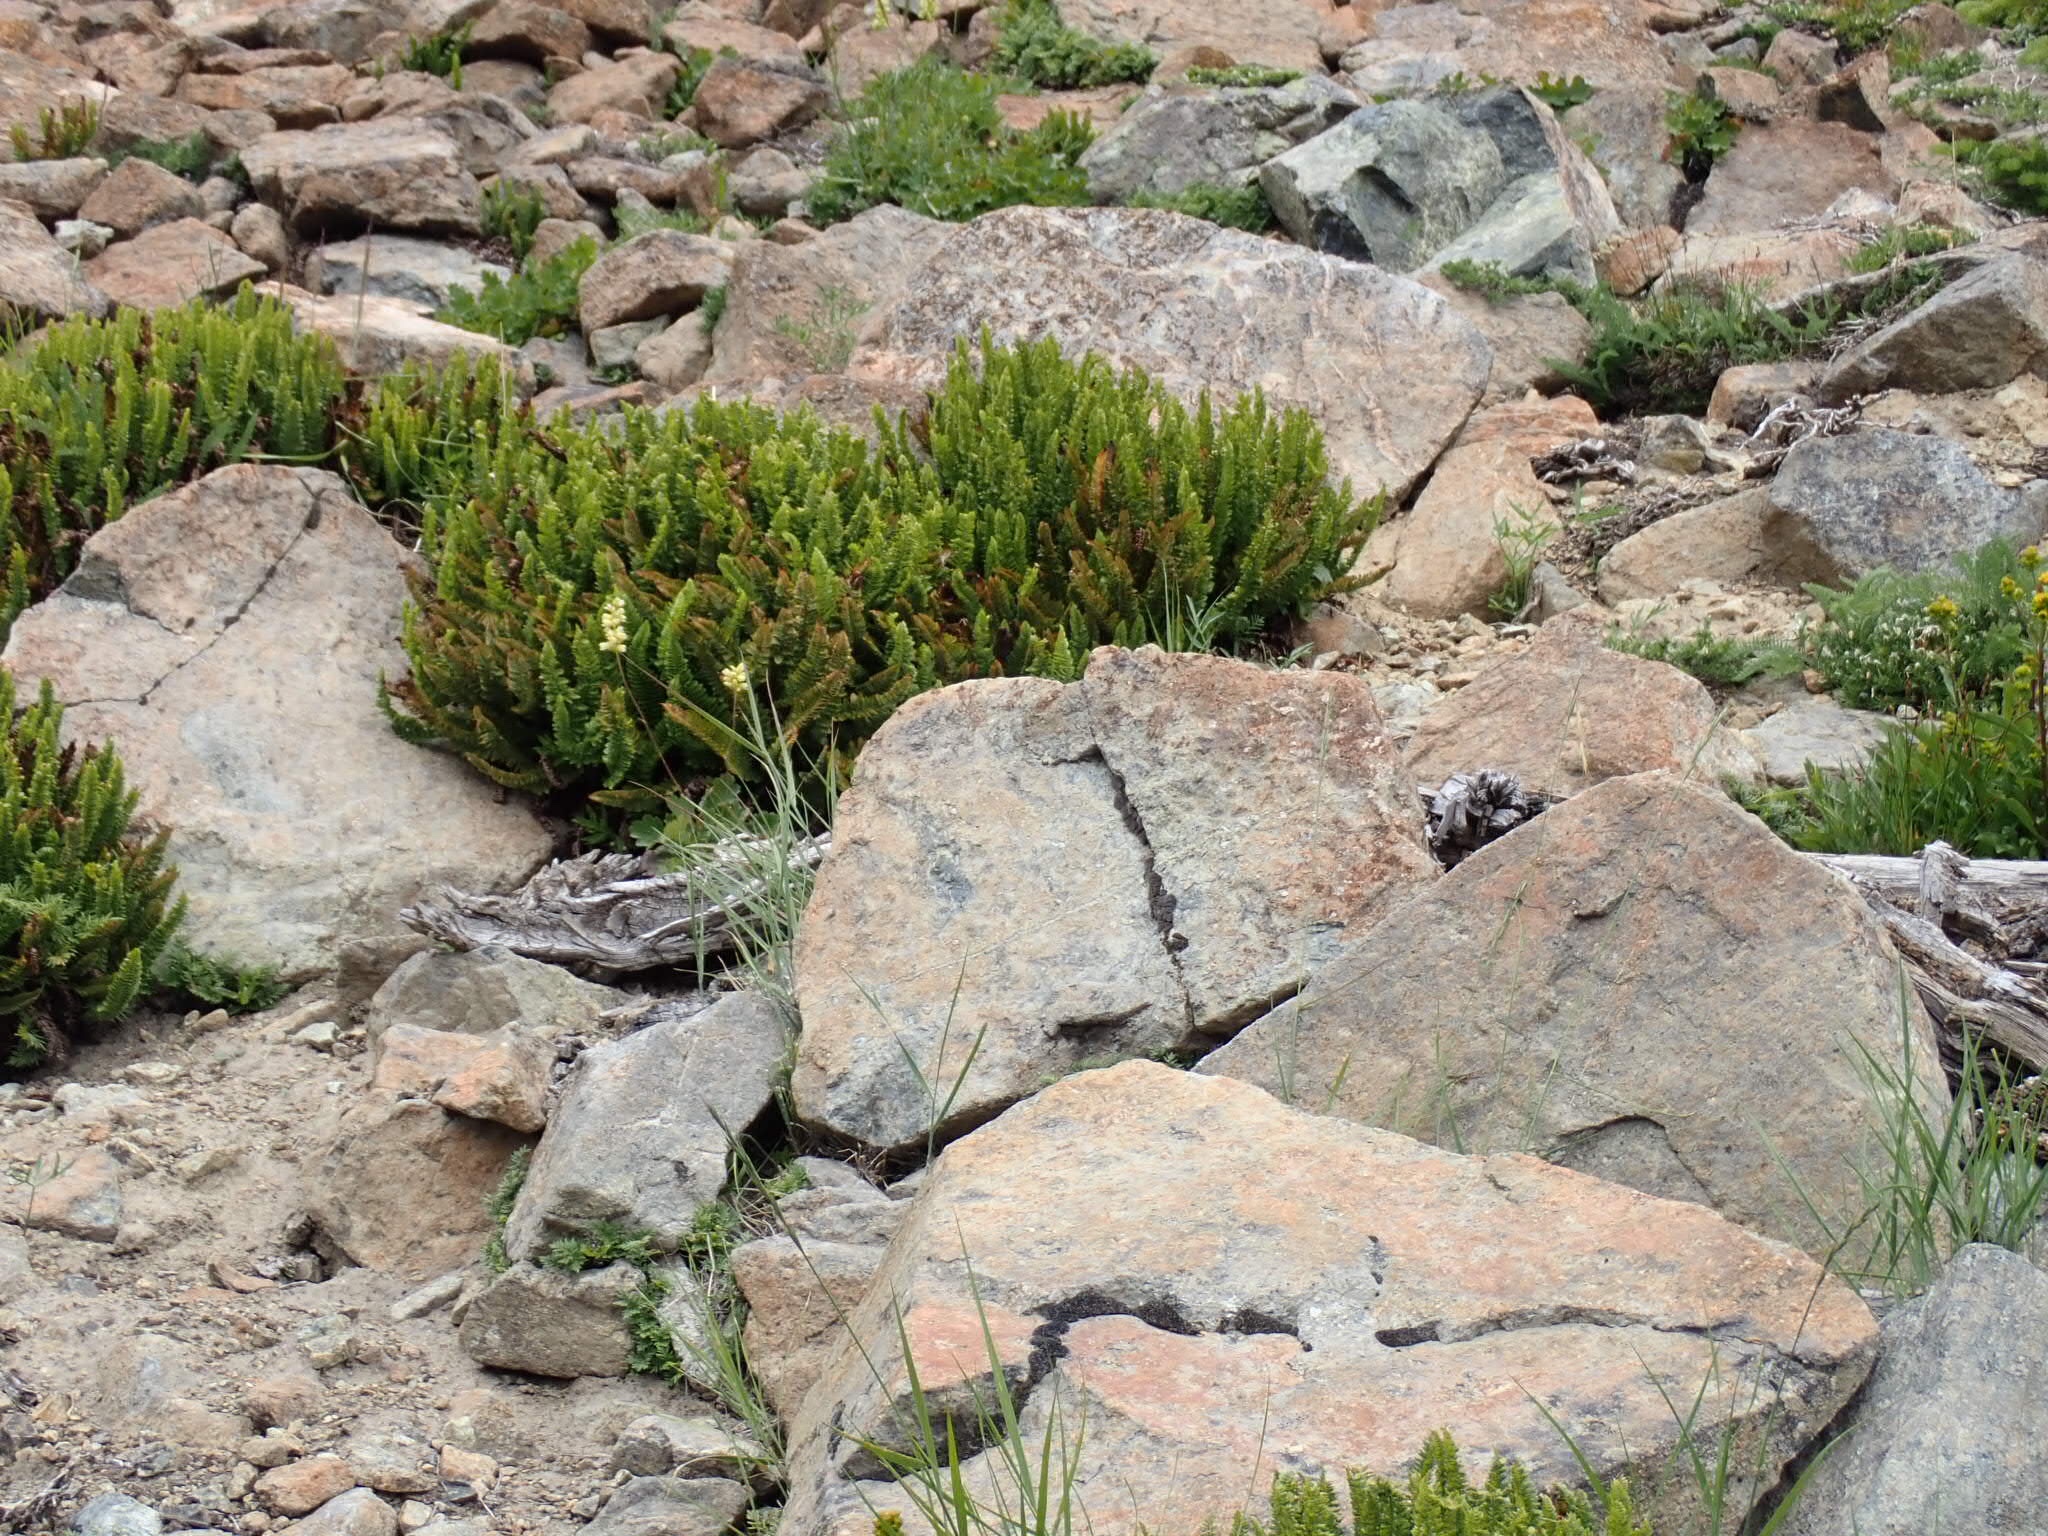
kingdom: Plantae
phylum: Tracheophyta
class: Polypodiopsida
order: Polypodiales
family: Dryopteridaceae
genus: Polystichum
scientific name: Polystichum lemmonii
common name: Lemmon's holly fern
